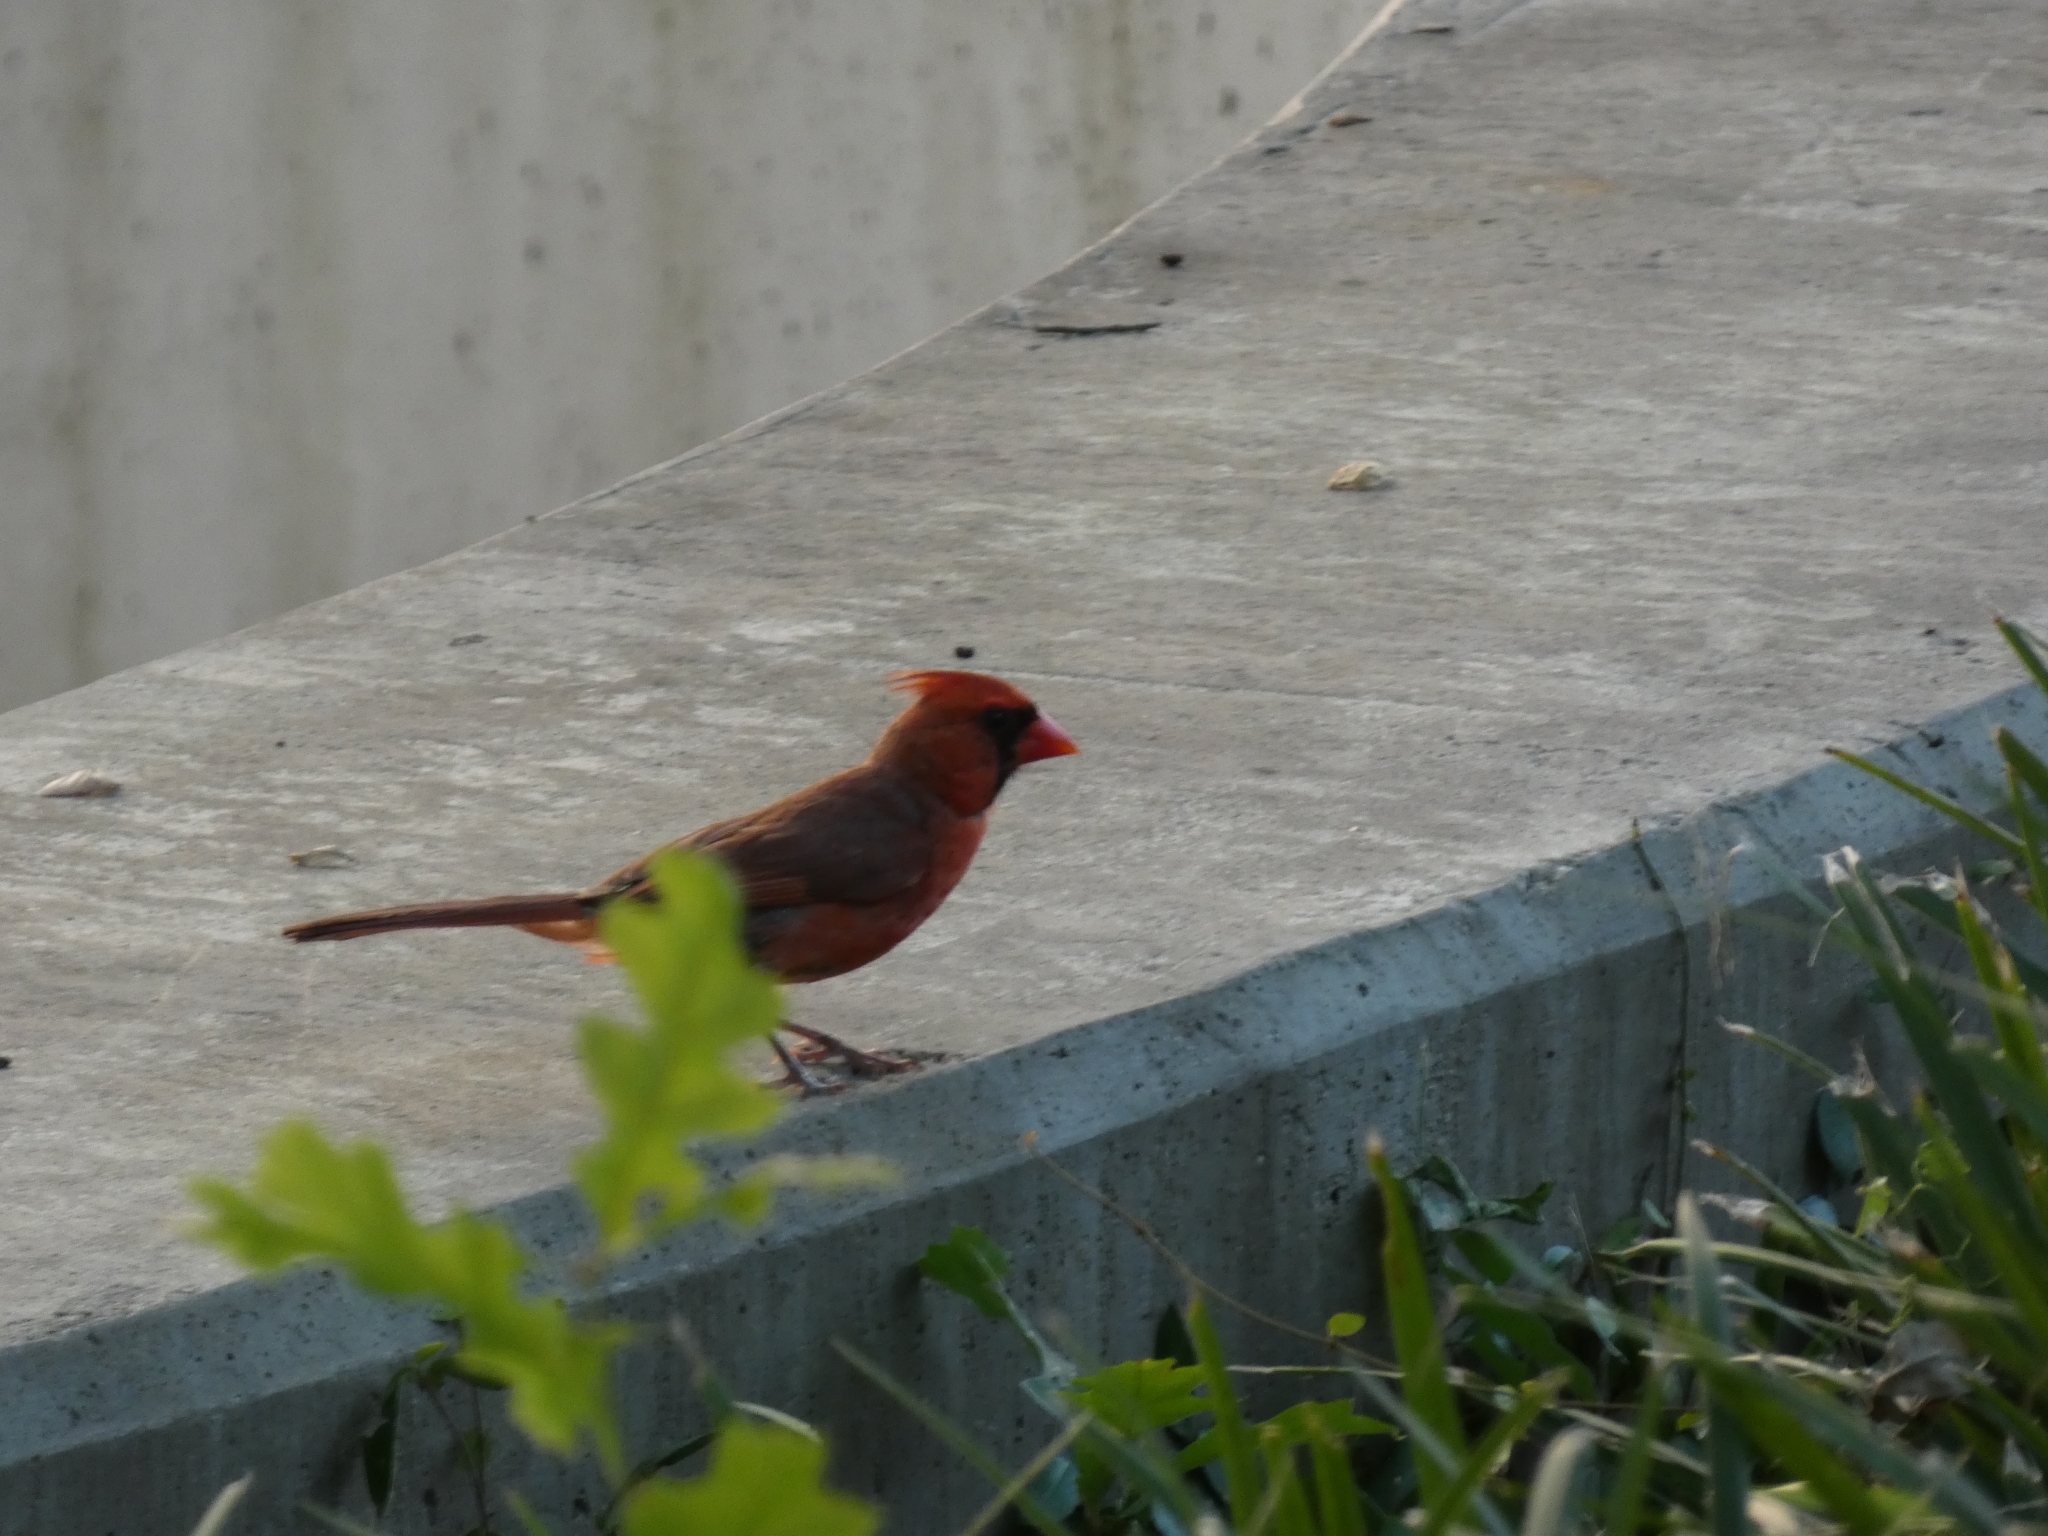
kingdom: Animalia
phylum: Chordata
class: Aves
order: Passeriformes
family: Cardinalidae
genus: Cardinalis
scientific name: Cardinalis cardinalis
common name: Northern cardinal
